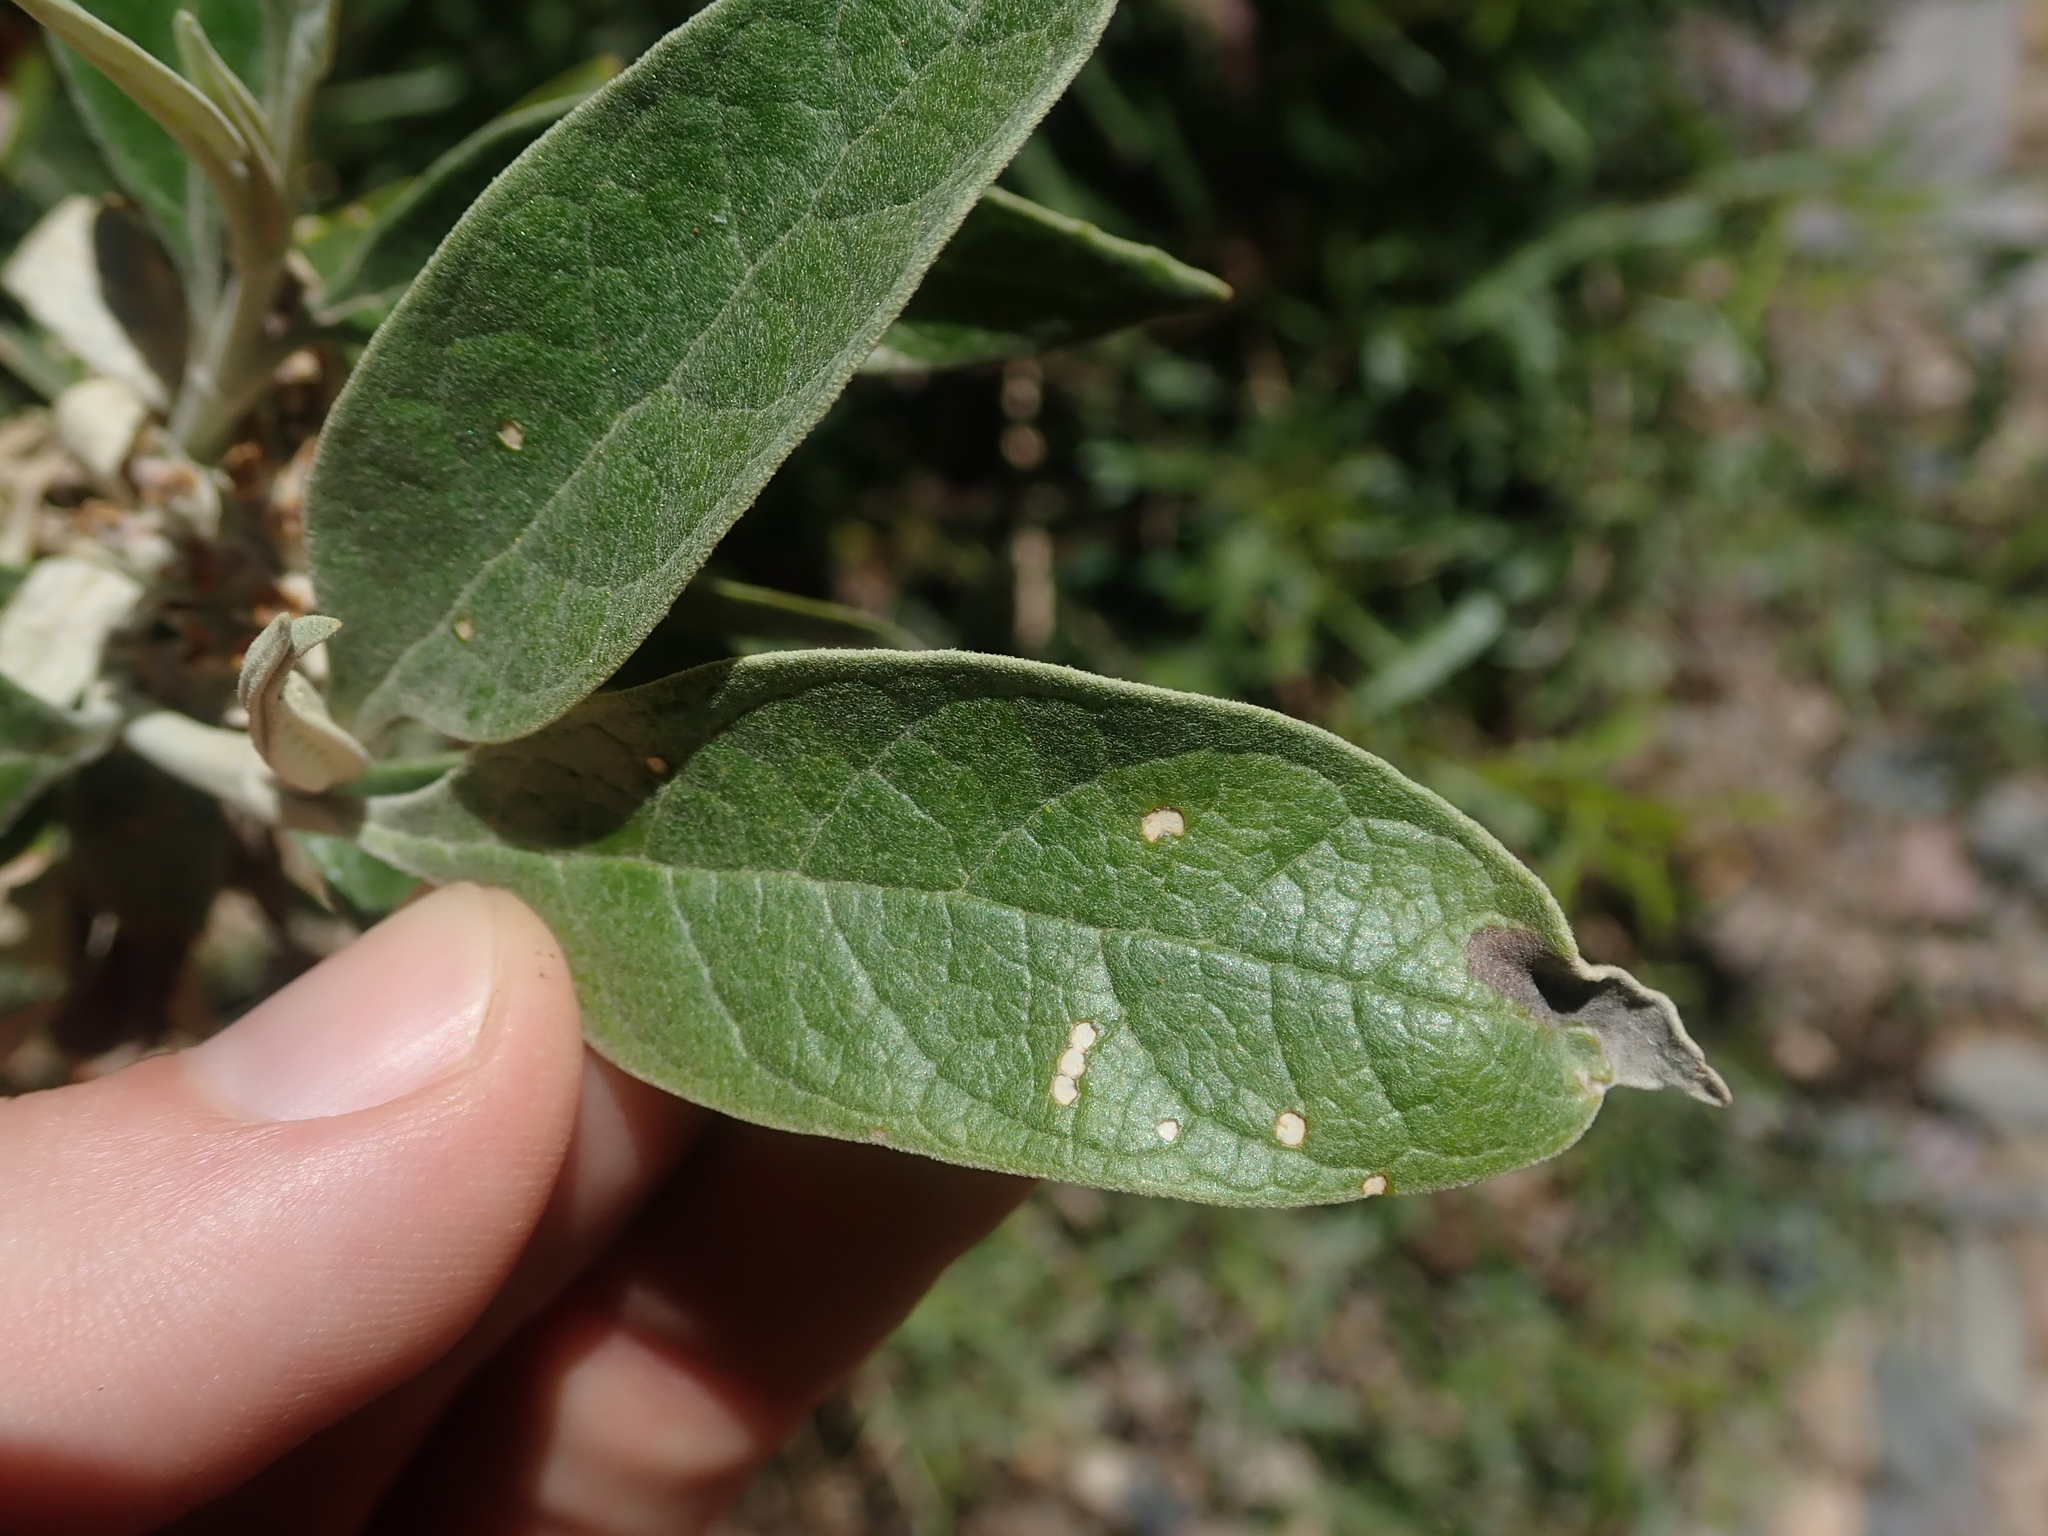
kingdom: Plantae
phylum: Tracheophyta
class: Magnoliopsida
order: Lamiales
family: Scrophulariaceae
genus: Buddleja
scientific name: Buddleja tucumanensis
